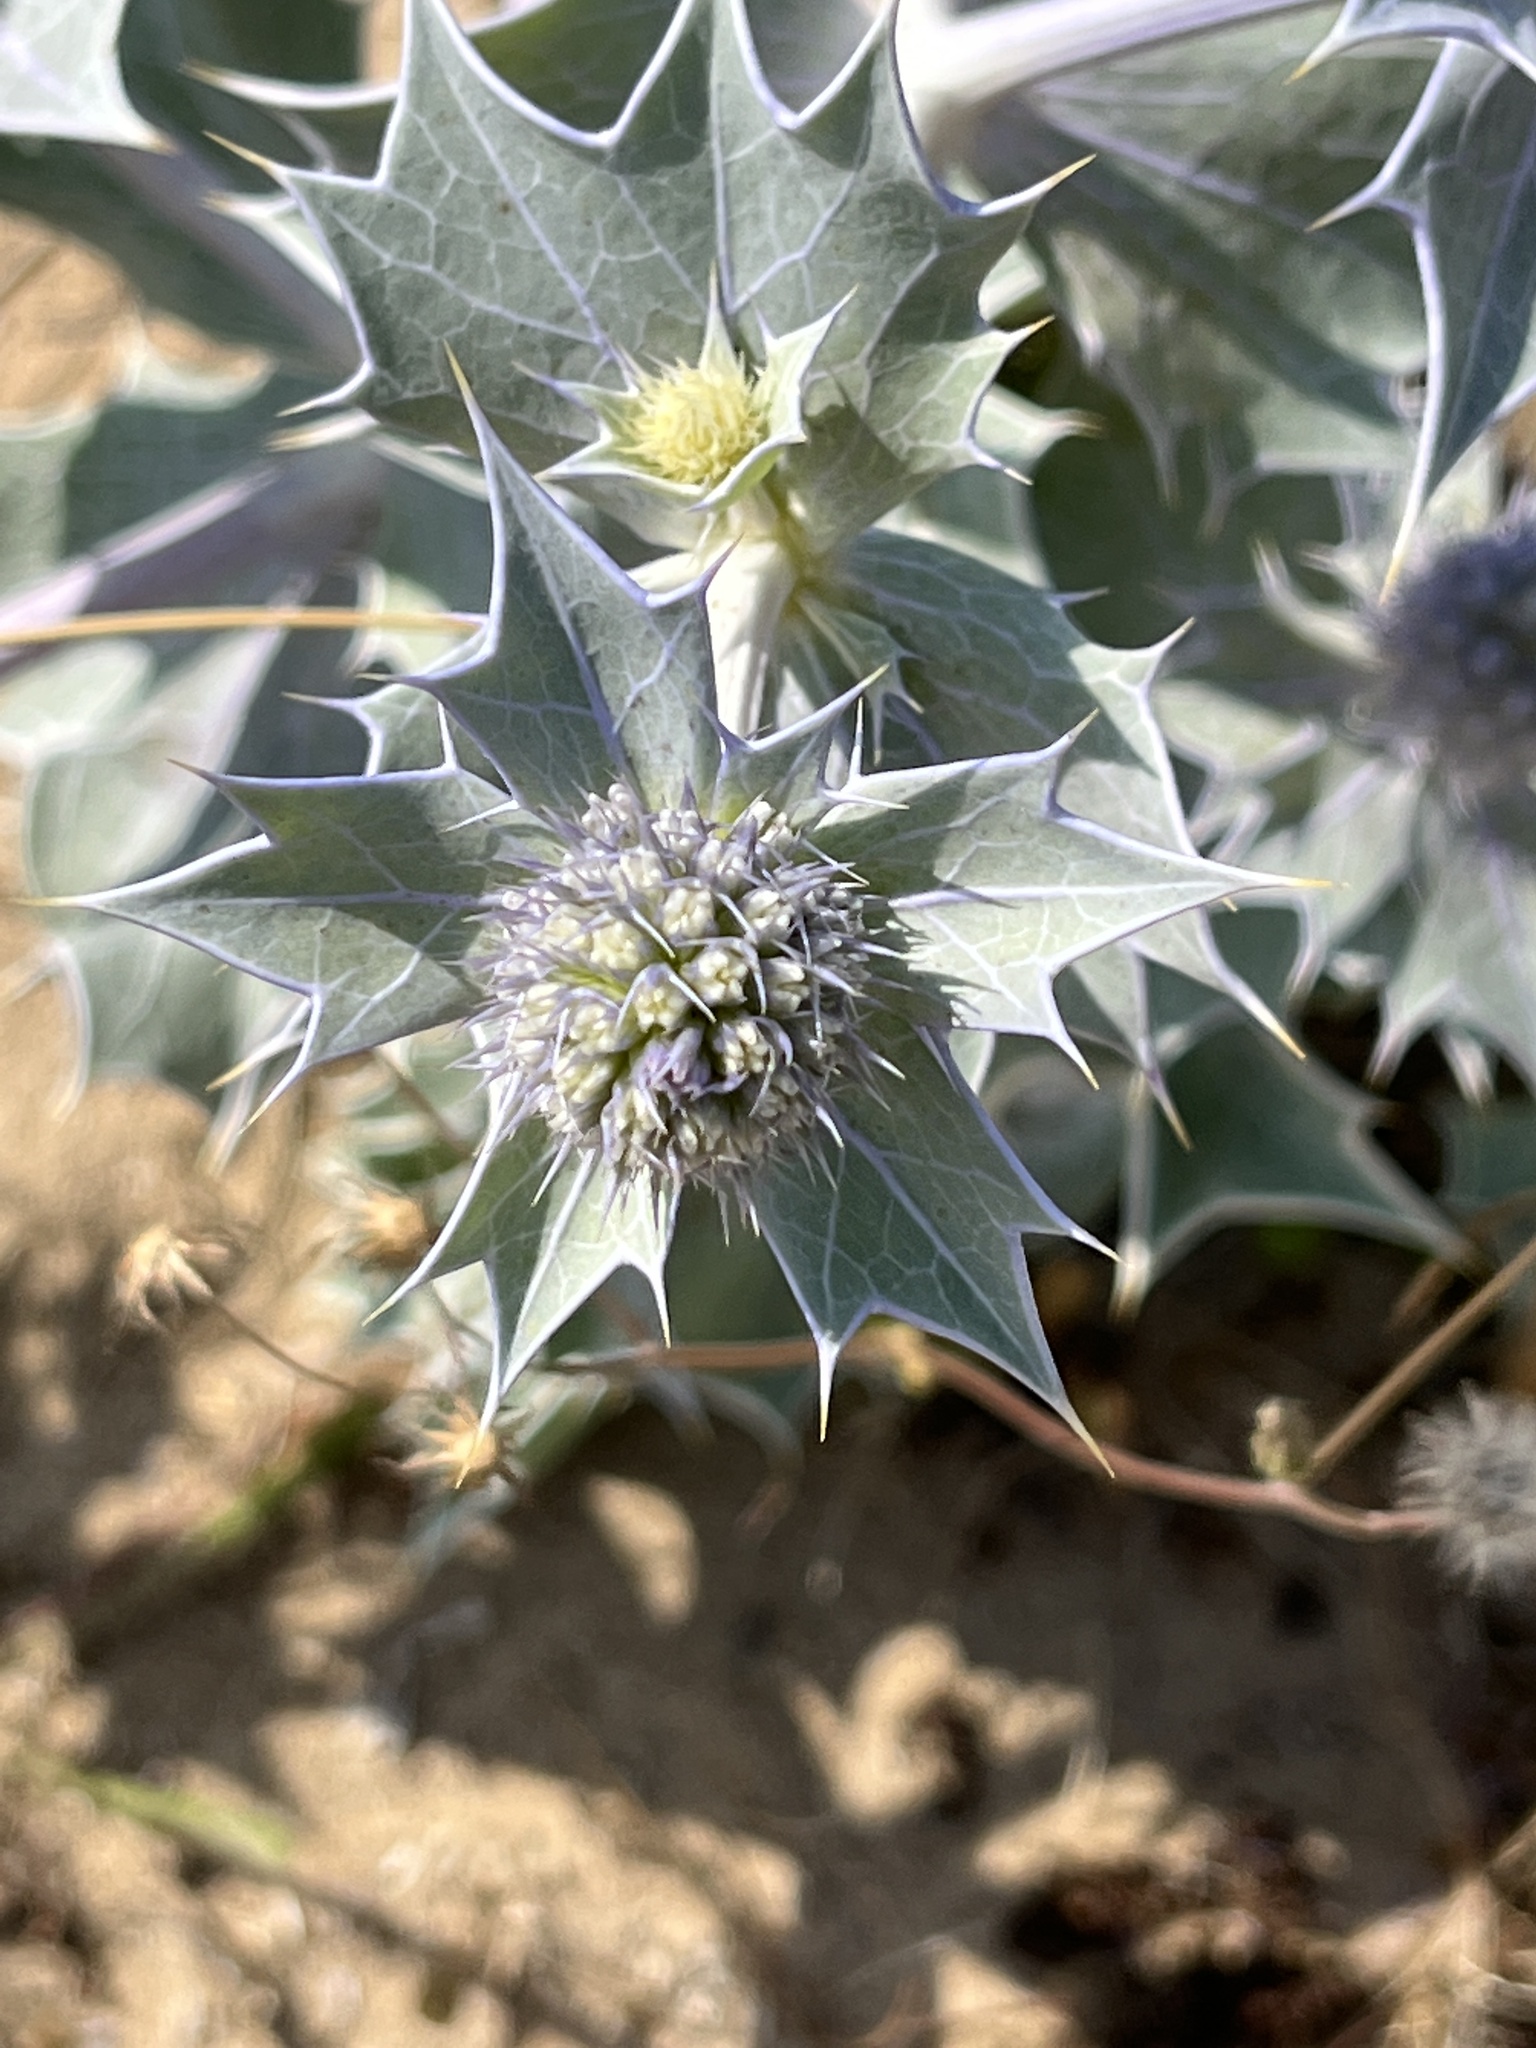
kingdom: Plantae
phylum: Tracheophyta
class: Magnoliopsida
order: Apiales
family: Apiaceae
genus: Eryngium
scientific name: Eryngium maritimum
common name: Sea-holly
